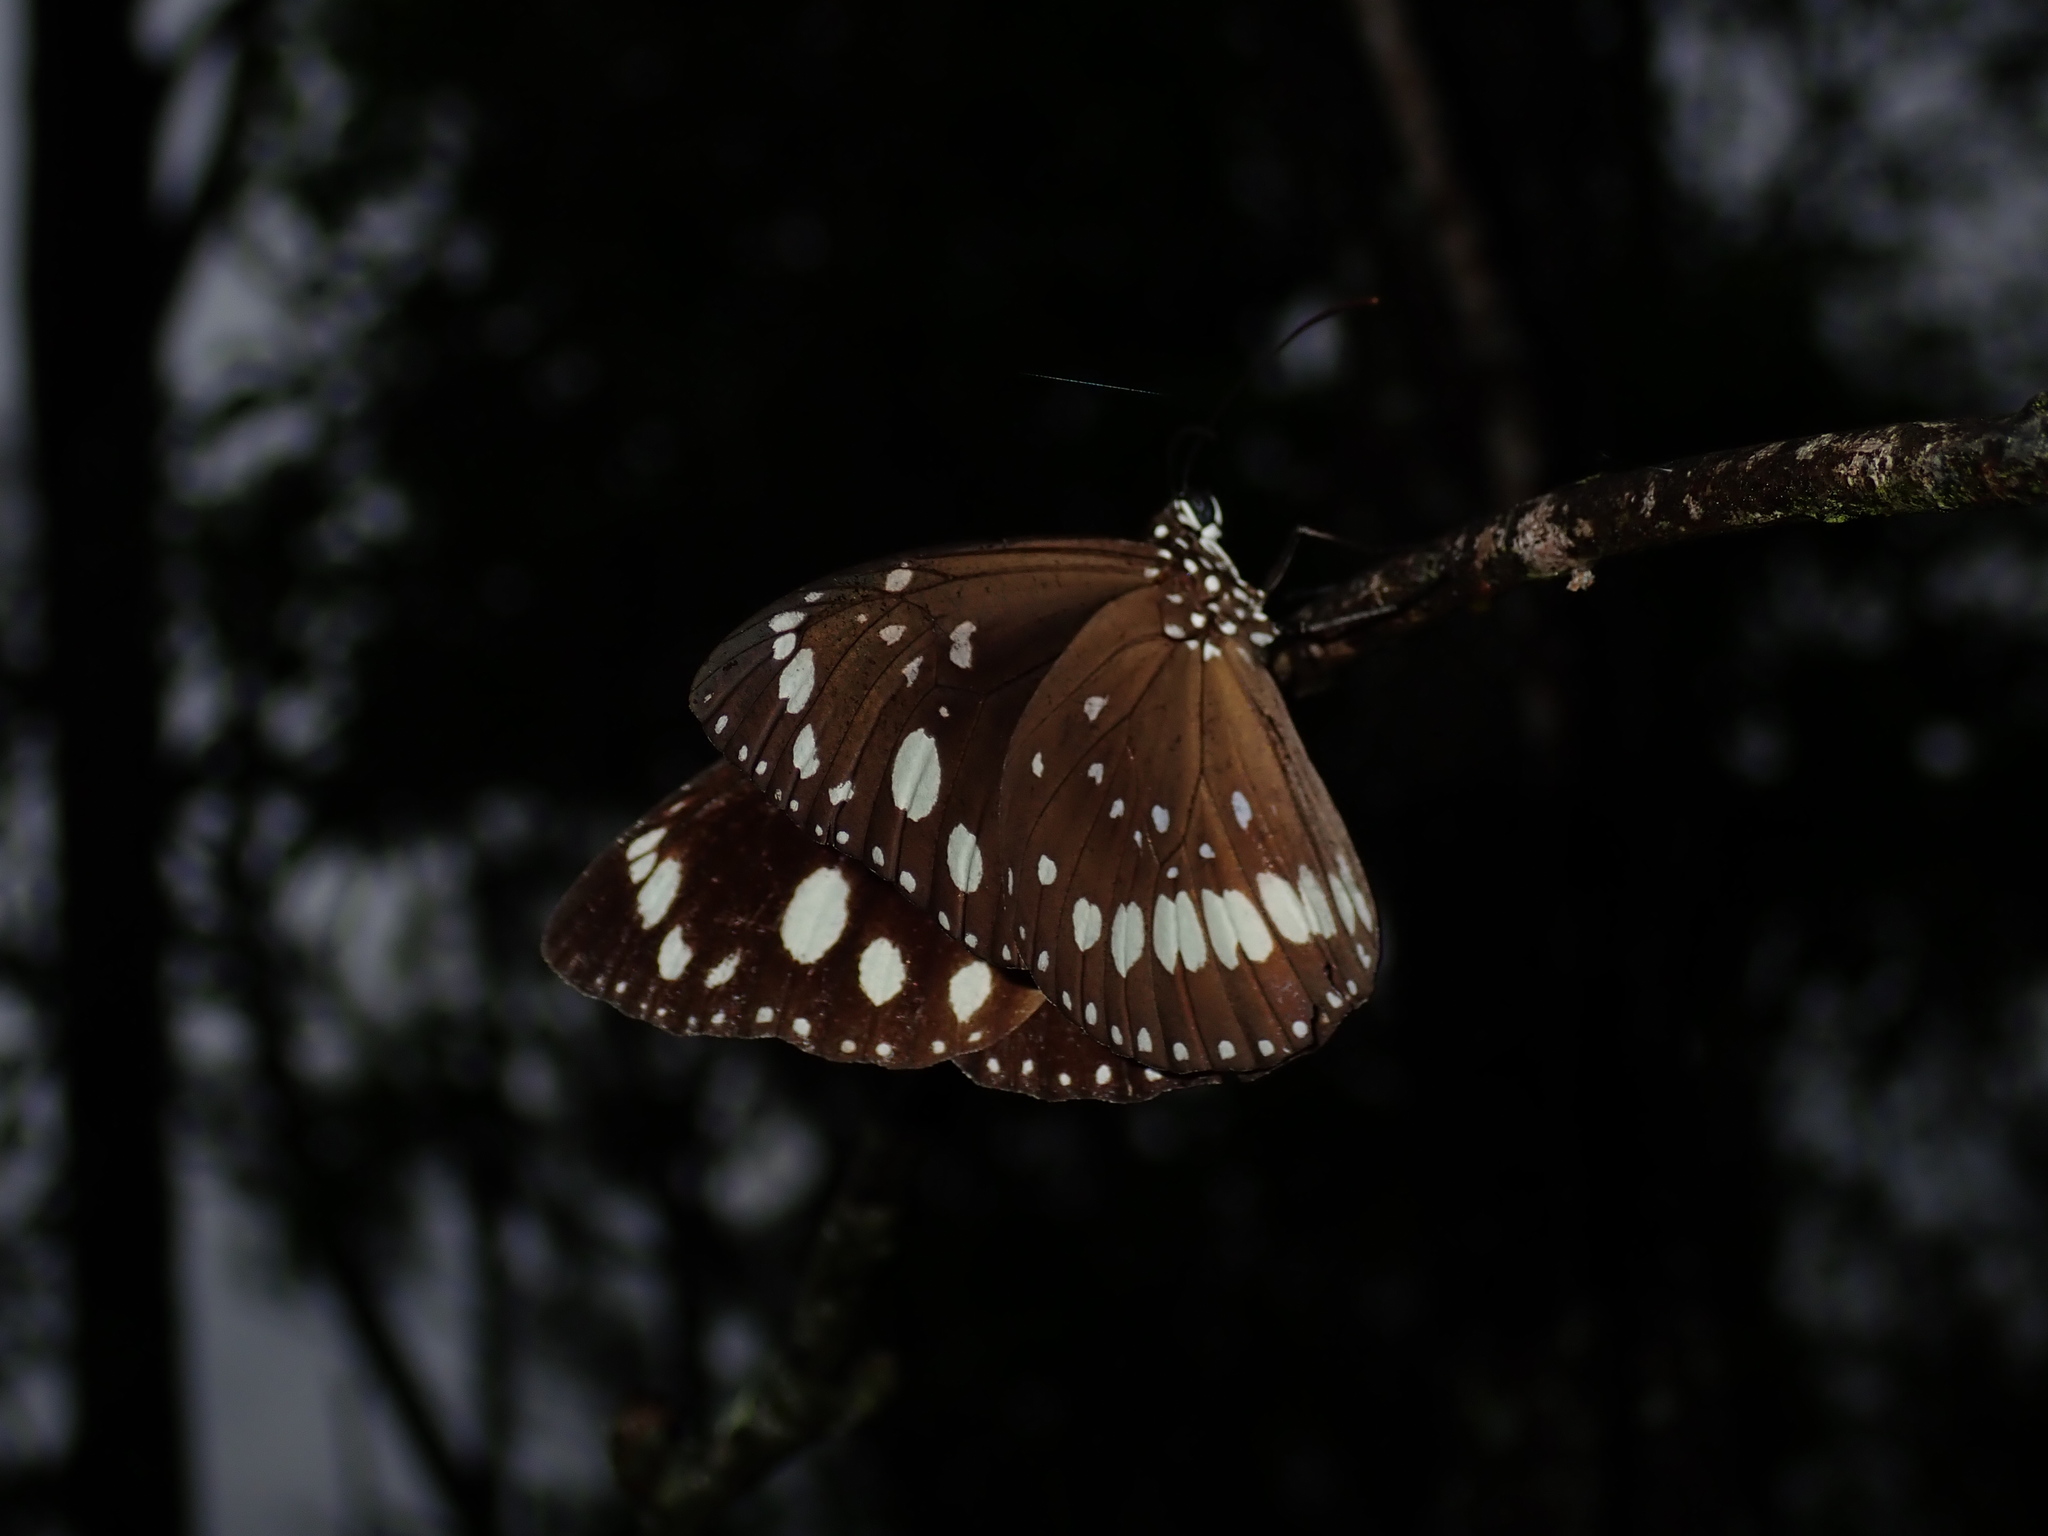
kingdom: Animalia
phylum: Arthropoda
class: Insecta
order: Lepidoptera
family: Nymphalidae
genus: Euploea
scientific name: Euploea core
